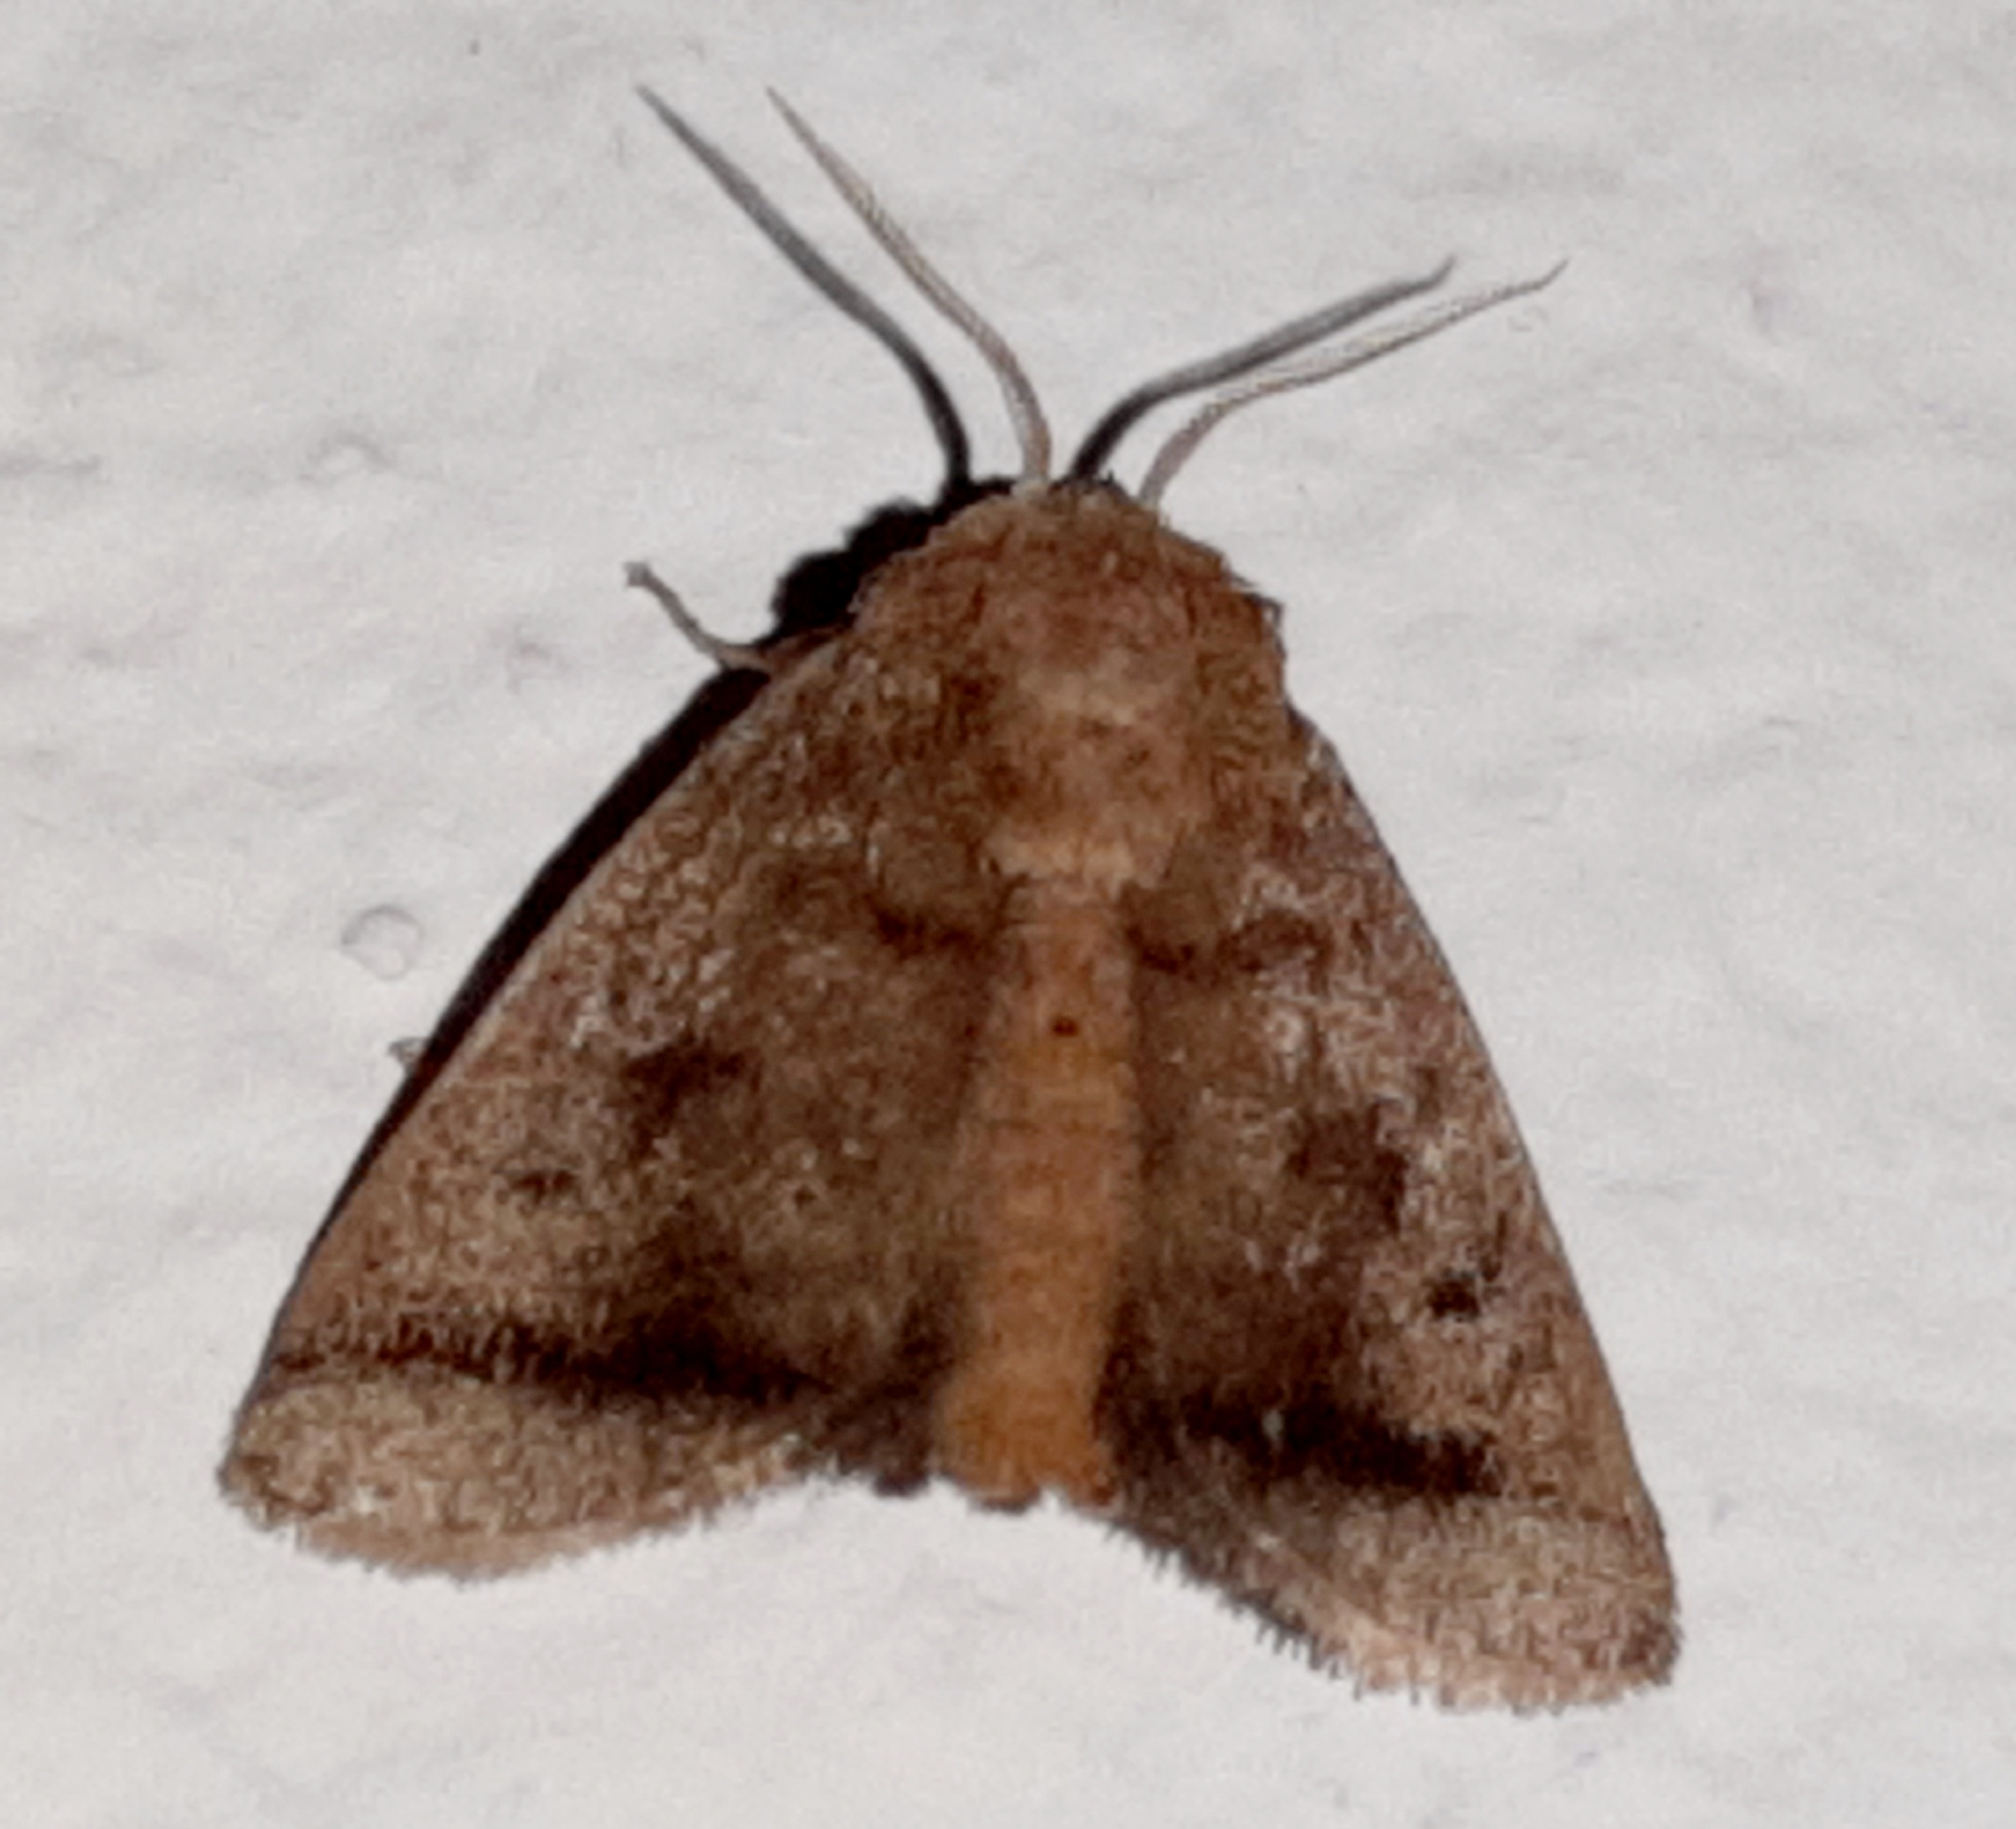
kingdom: Animalia
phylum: Arthropoda
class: Insecta
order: Lepidoptera
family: Limacodidae
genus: Natada
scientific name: Natada lalogamezi
